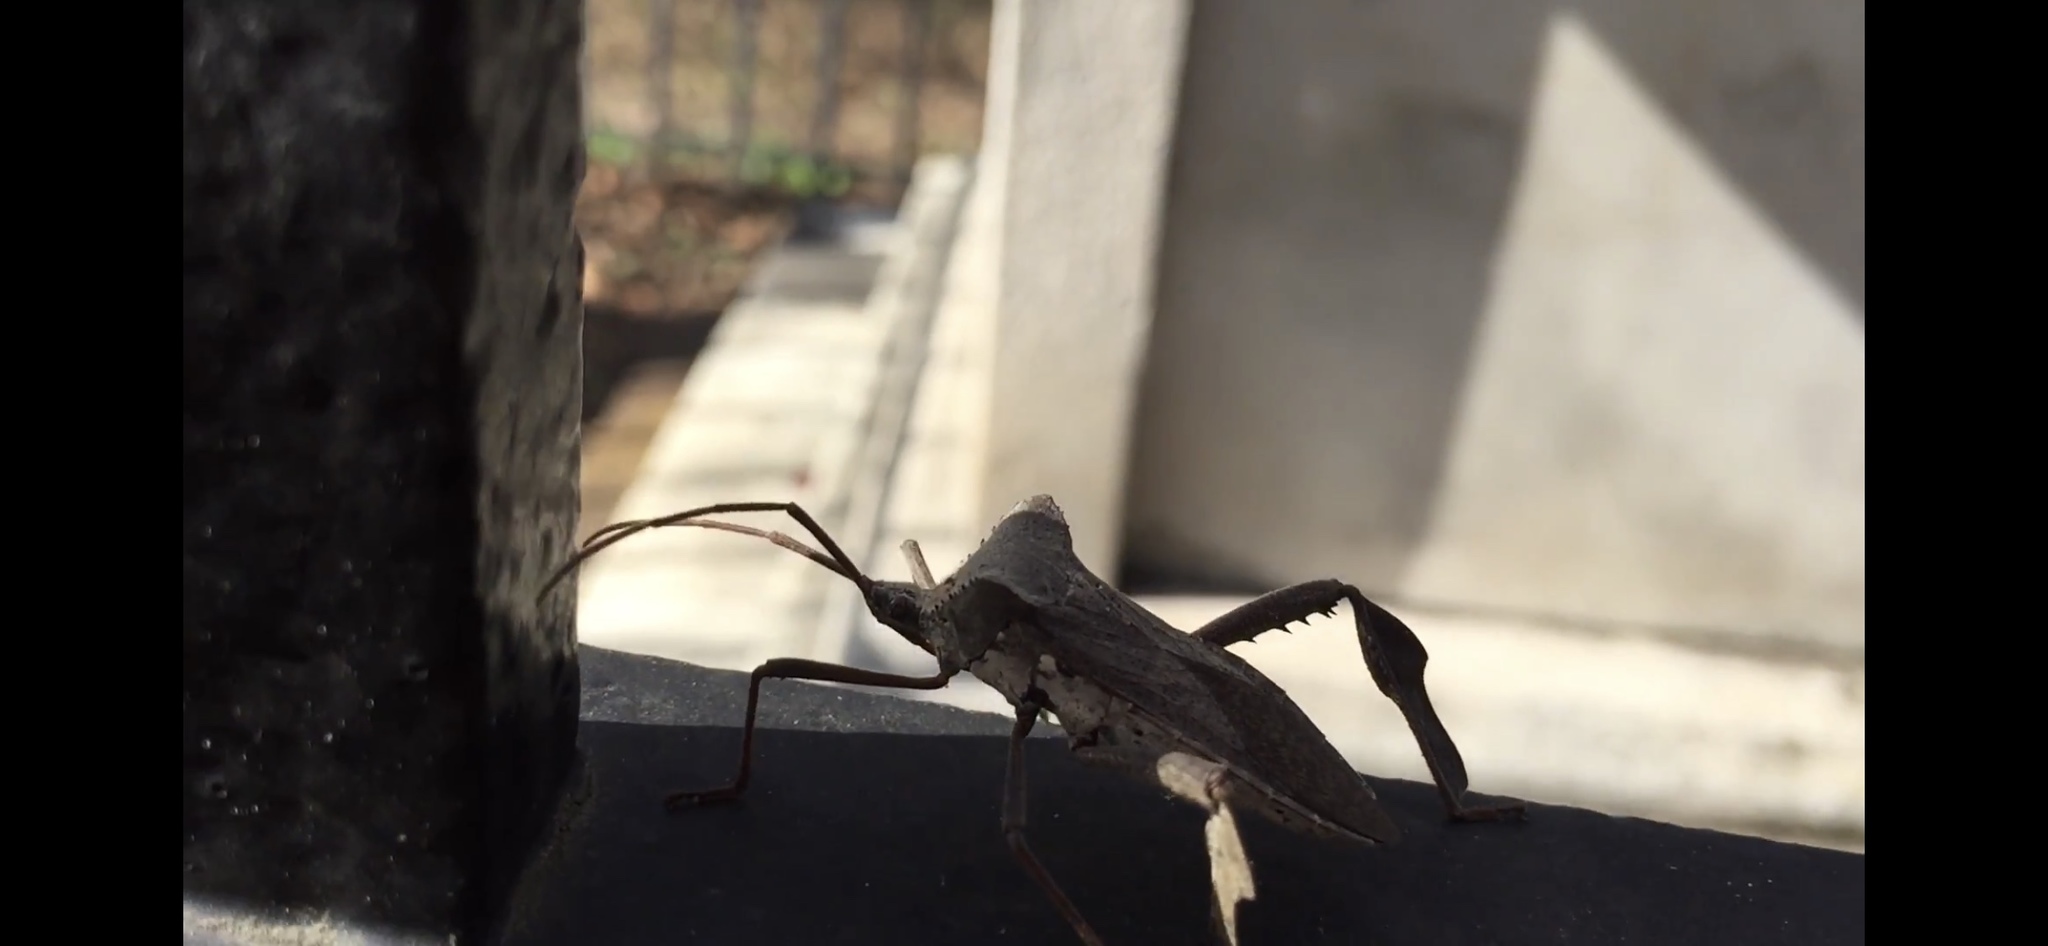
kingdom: Animalia
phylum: Arthropoda
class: Insecta
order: Hemiptera
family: Coreidae
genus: Acanthocephala
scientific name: Acanthocephala declivis
